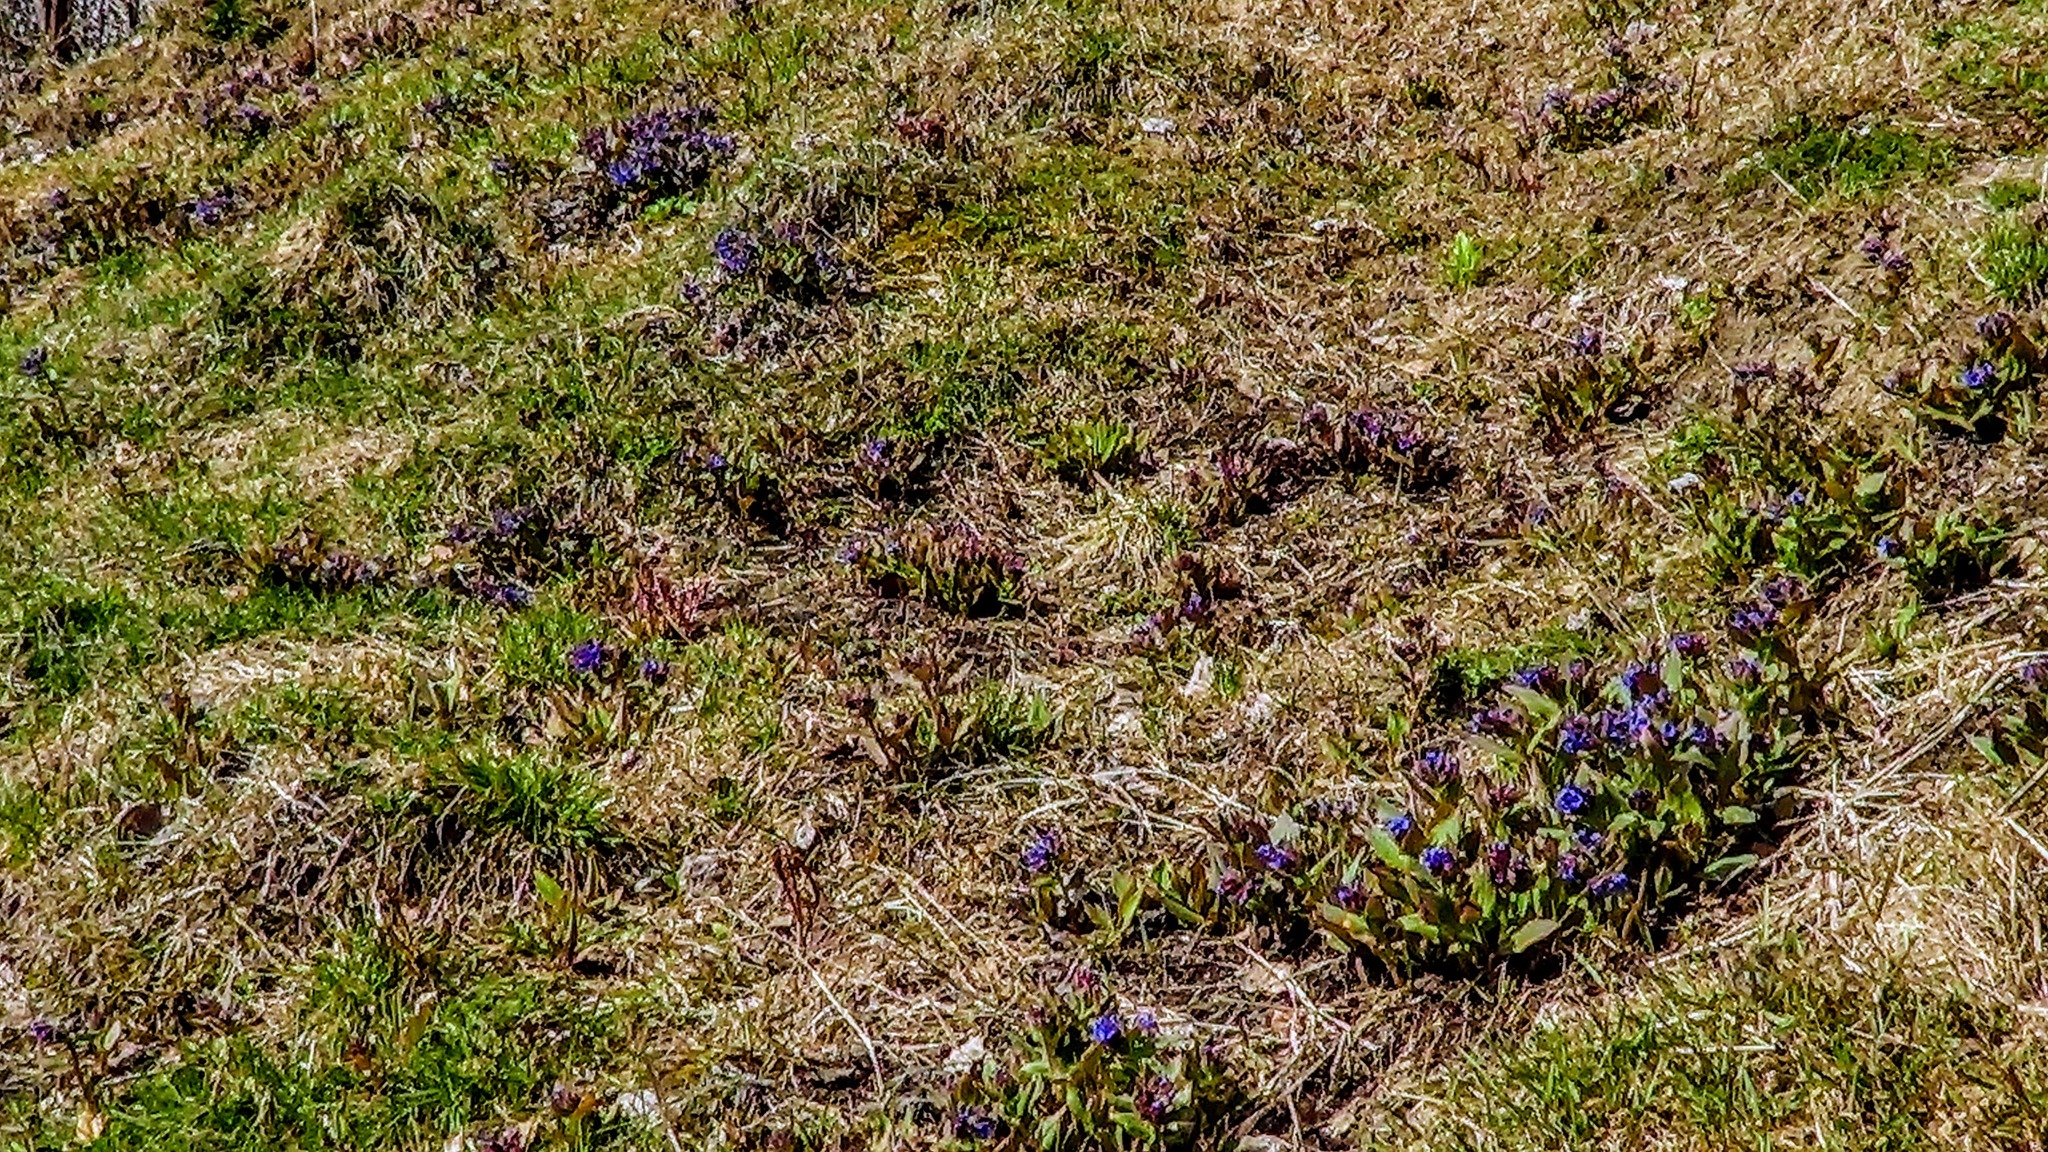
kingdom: Plantae
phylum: Tracheophyta
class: Magnoliopsida
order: Boraginales
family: Boraginaceae
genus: Pulmonaria
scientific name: Pulmonaria mollis
